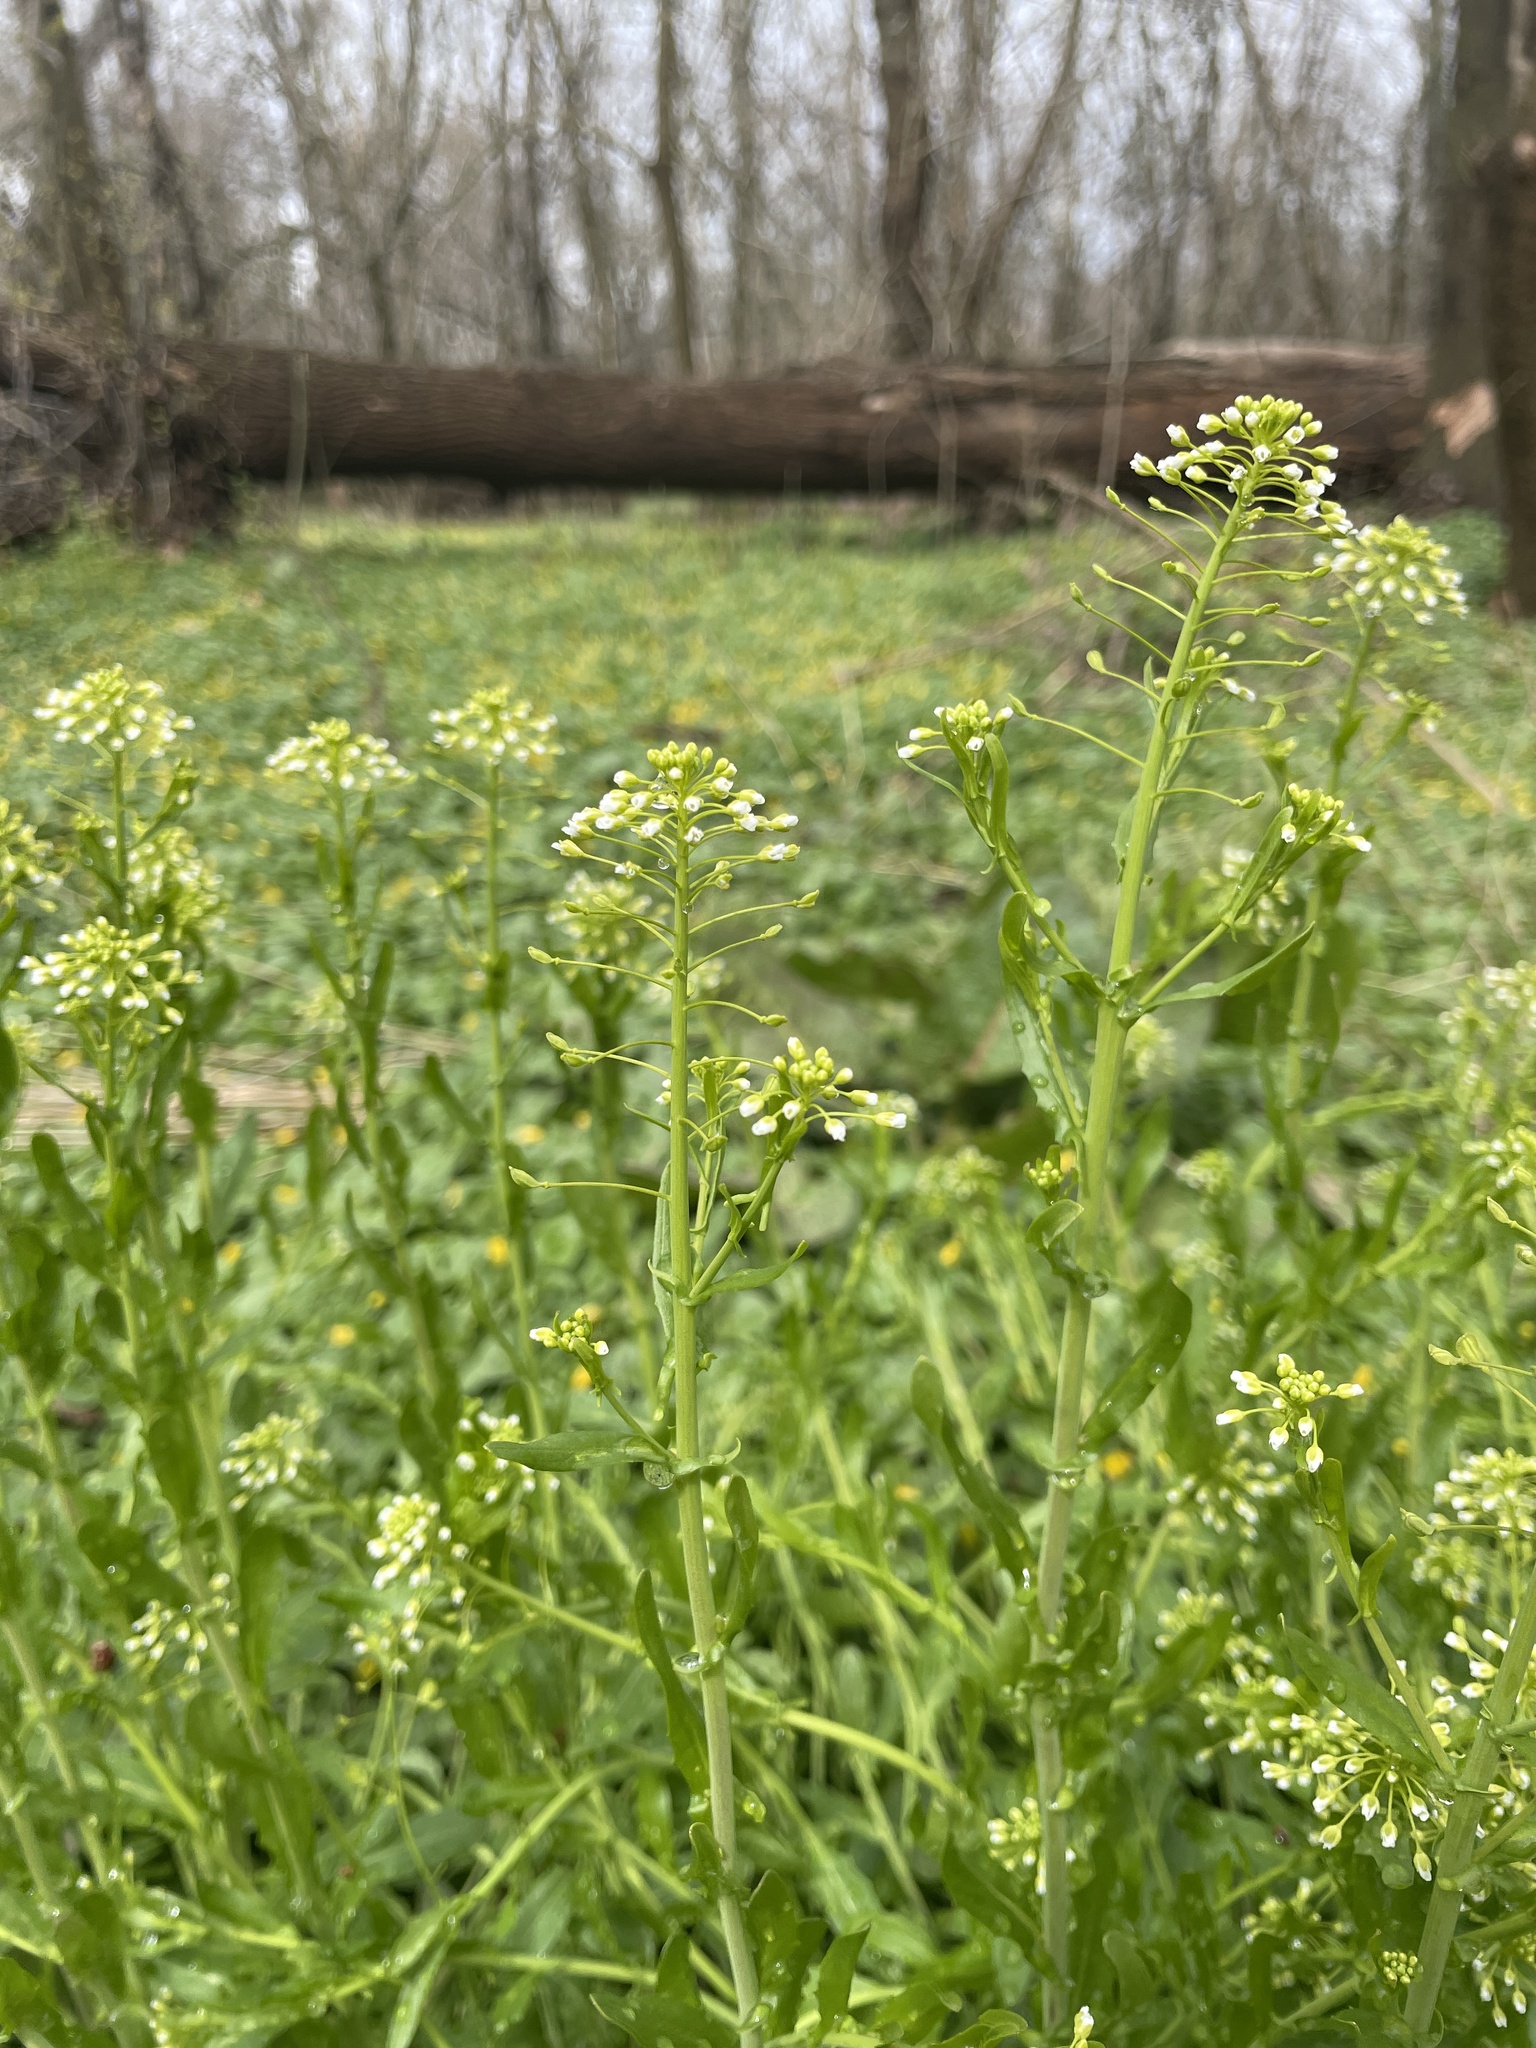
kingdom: Plantae
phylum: Tracheophyta
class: Magnoliopsida
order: Brassicales
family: Brassicaceae
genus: Mummenhoffia
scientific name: Mummenhoffia alliacea
